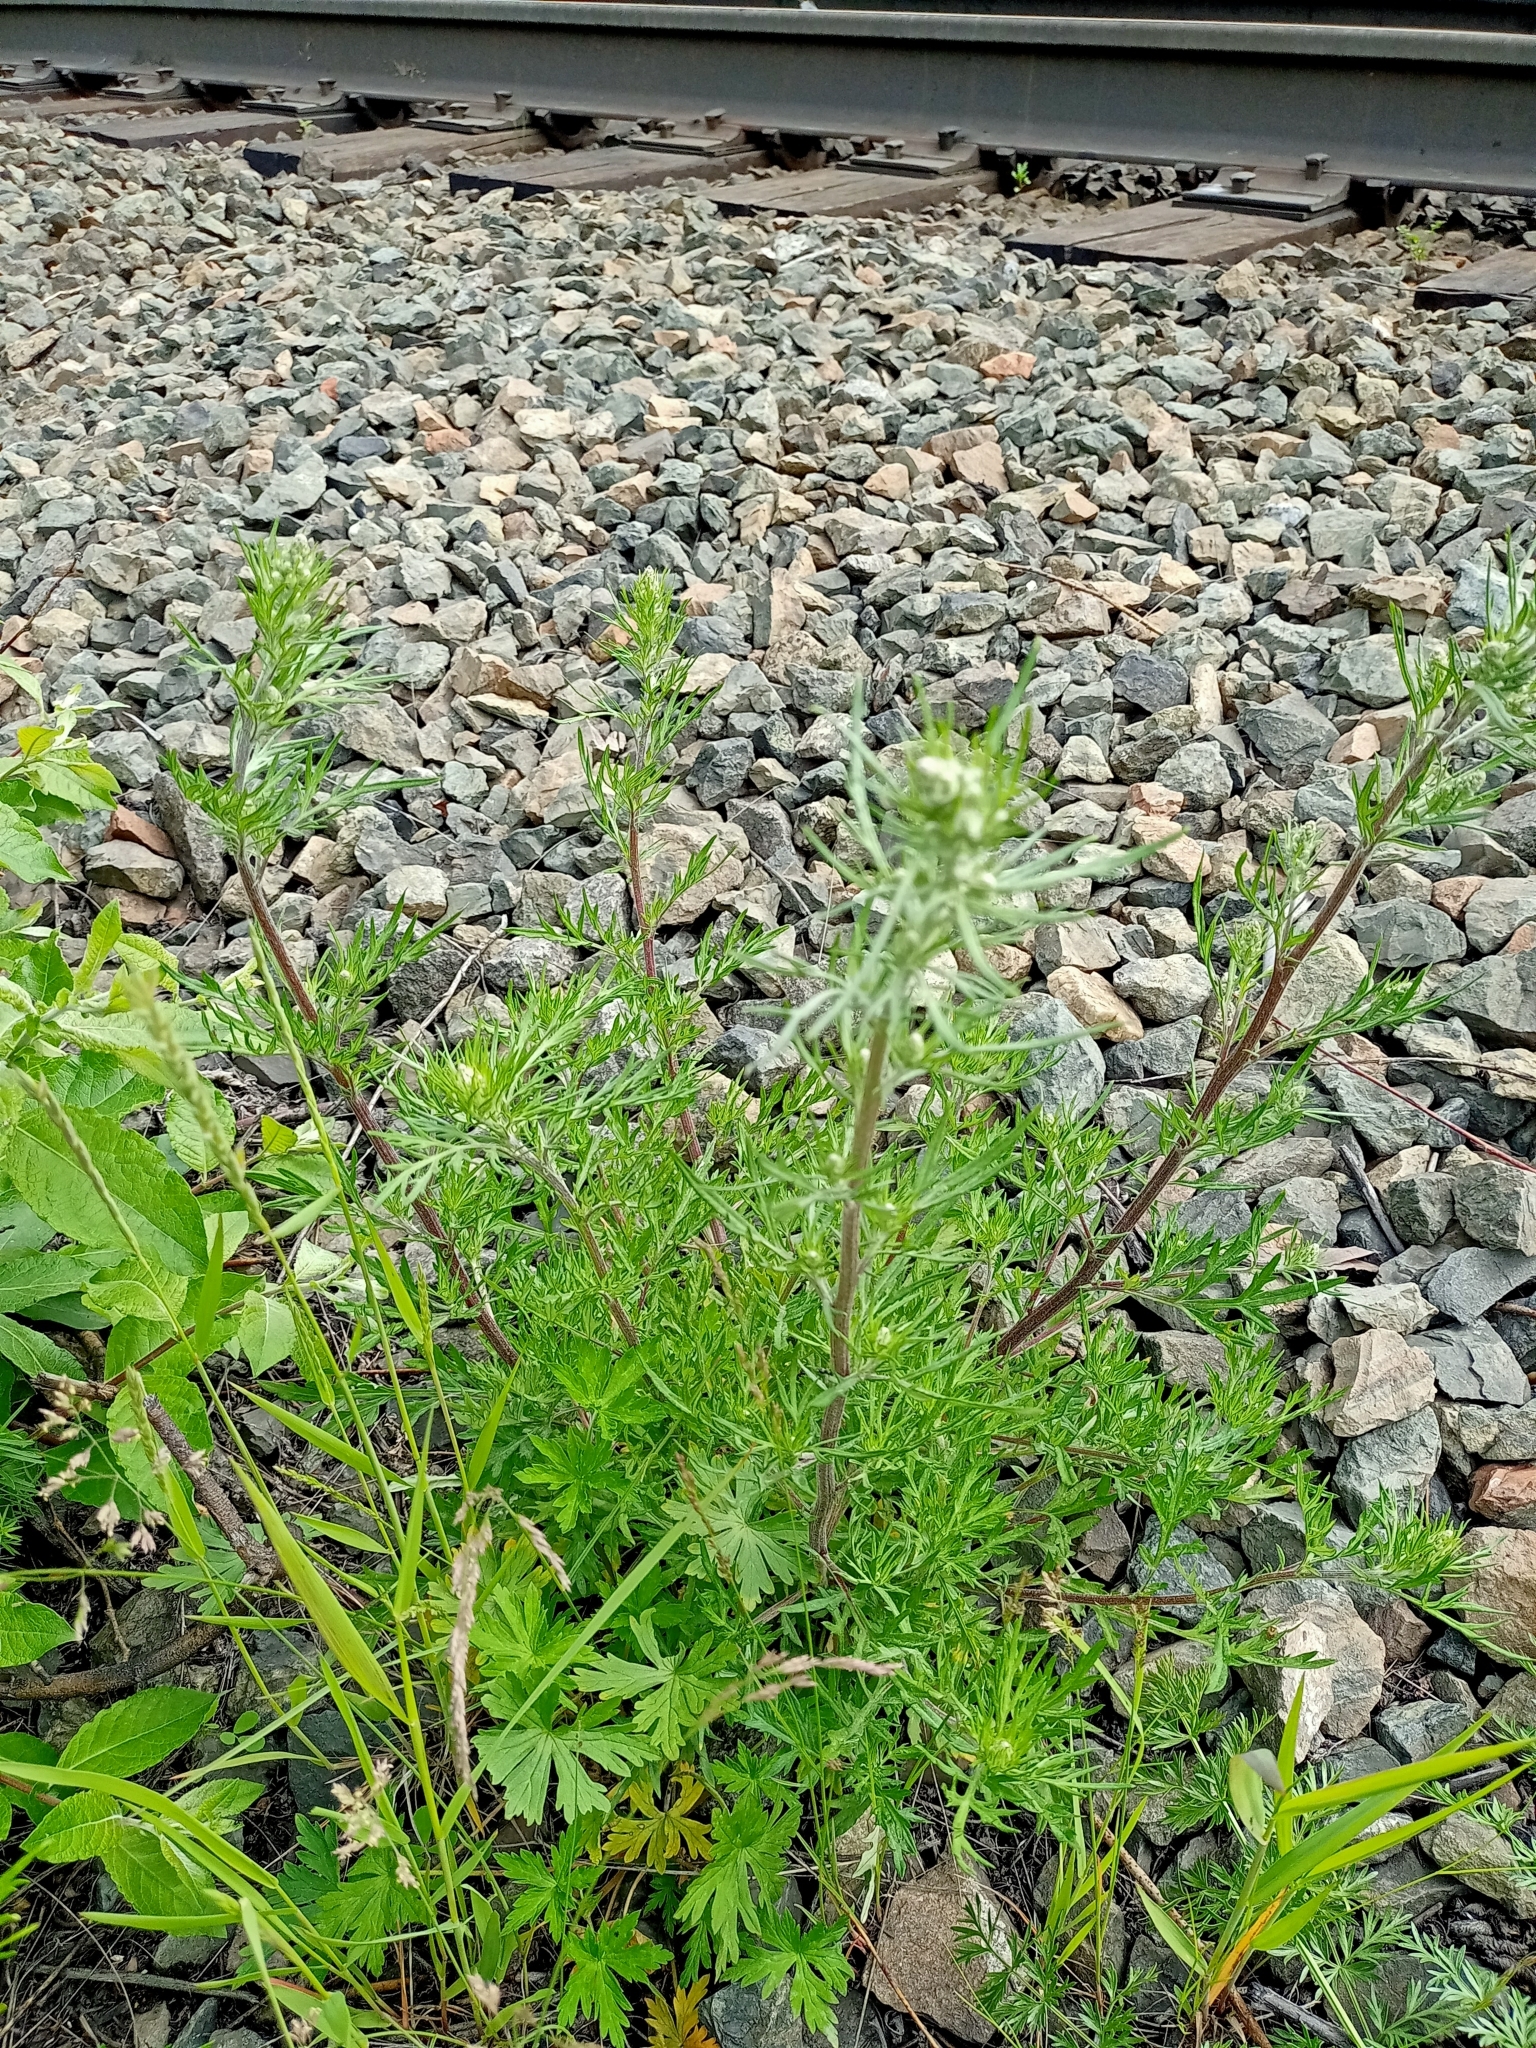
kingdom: Plantae
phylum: Tracheophyta
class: Magnoliopsida
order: Asterales
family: Asteraceae
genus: Artemisia
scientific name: Artemisia vulgaris
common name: Mugwort
